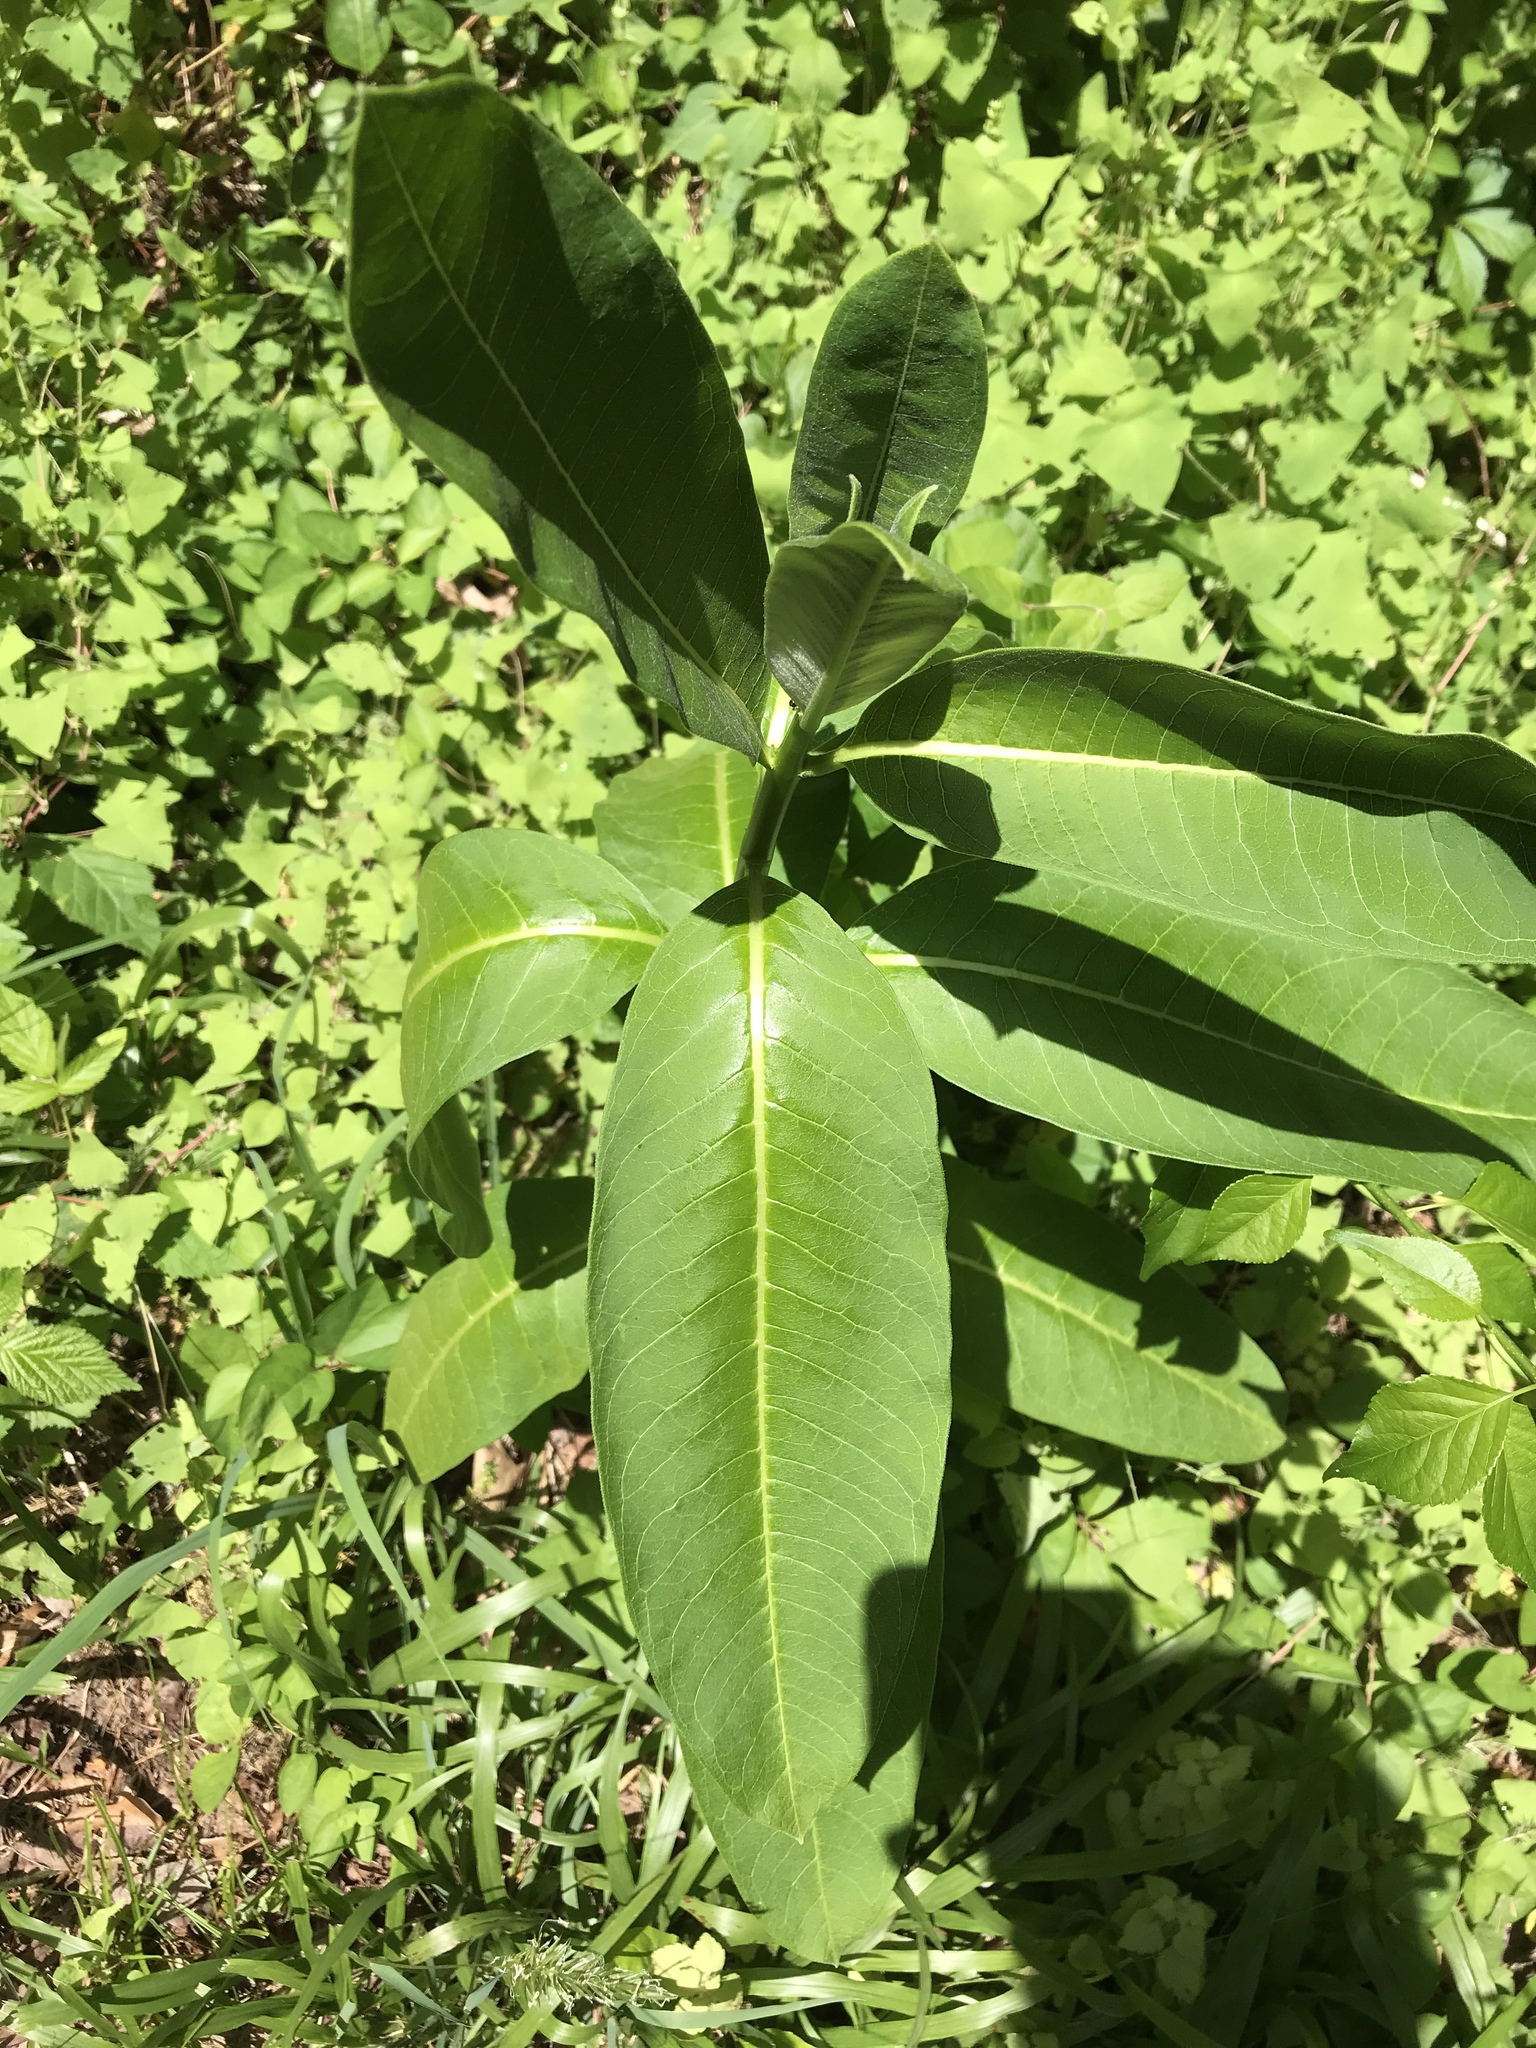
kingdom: Plantae
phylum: Tracheophyta
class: Magnoliopsida
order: Gentianales
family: Apocynaceae
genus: Asclepias
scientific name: Asclepias syriaca
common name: Common milkweed
